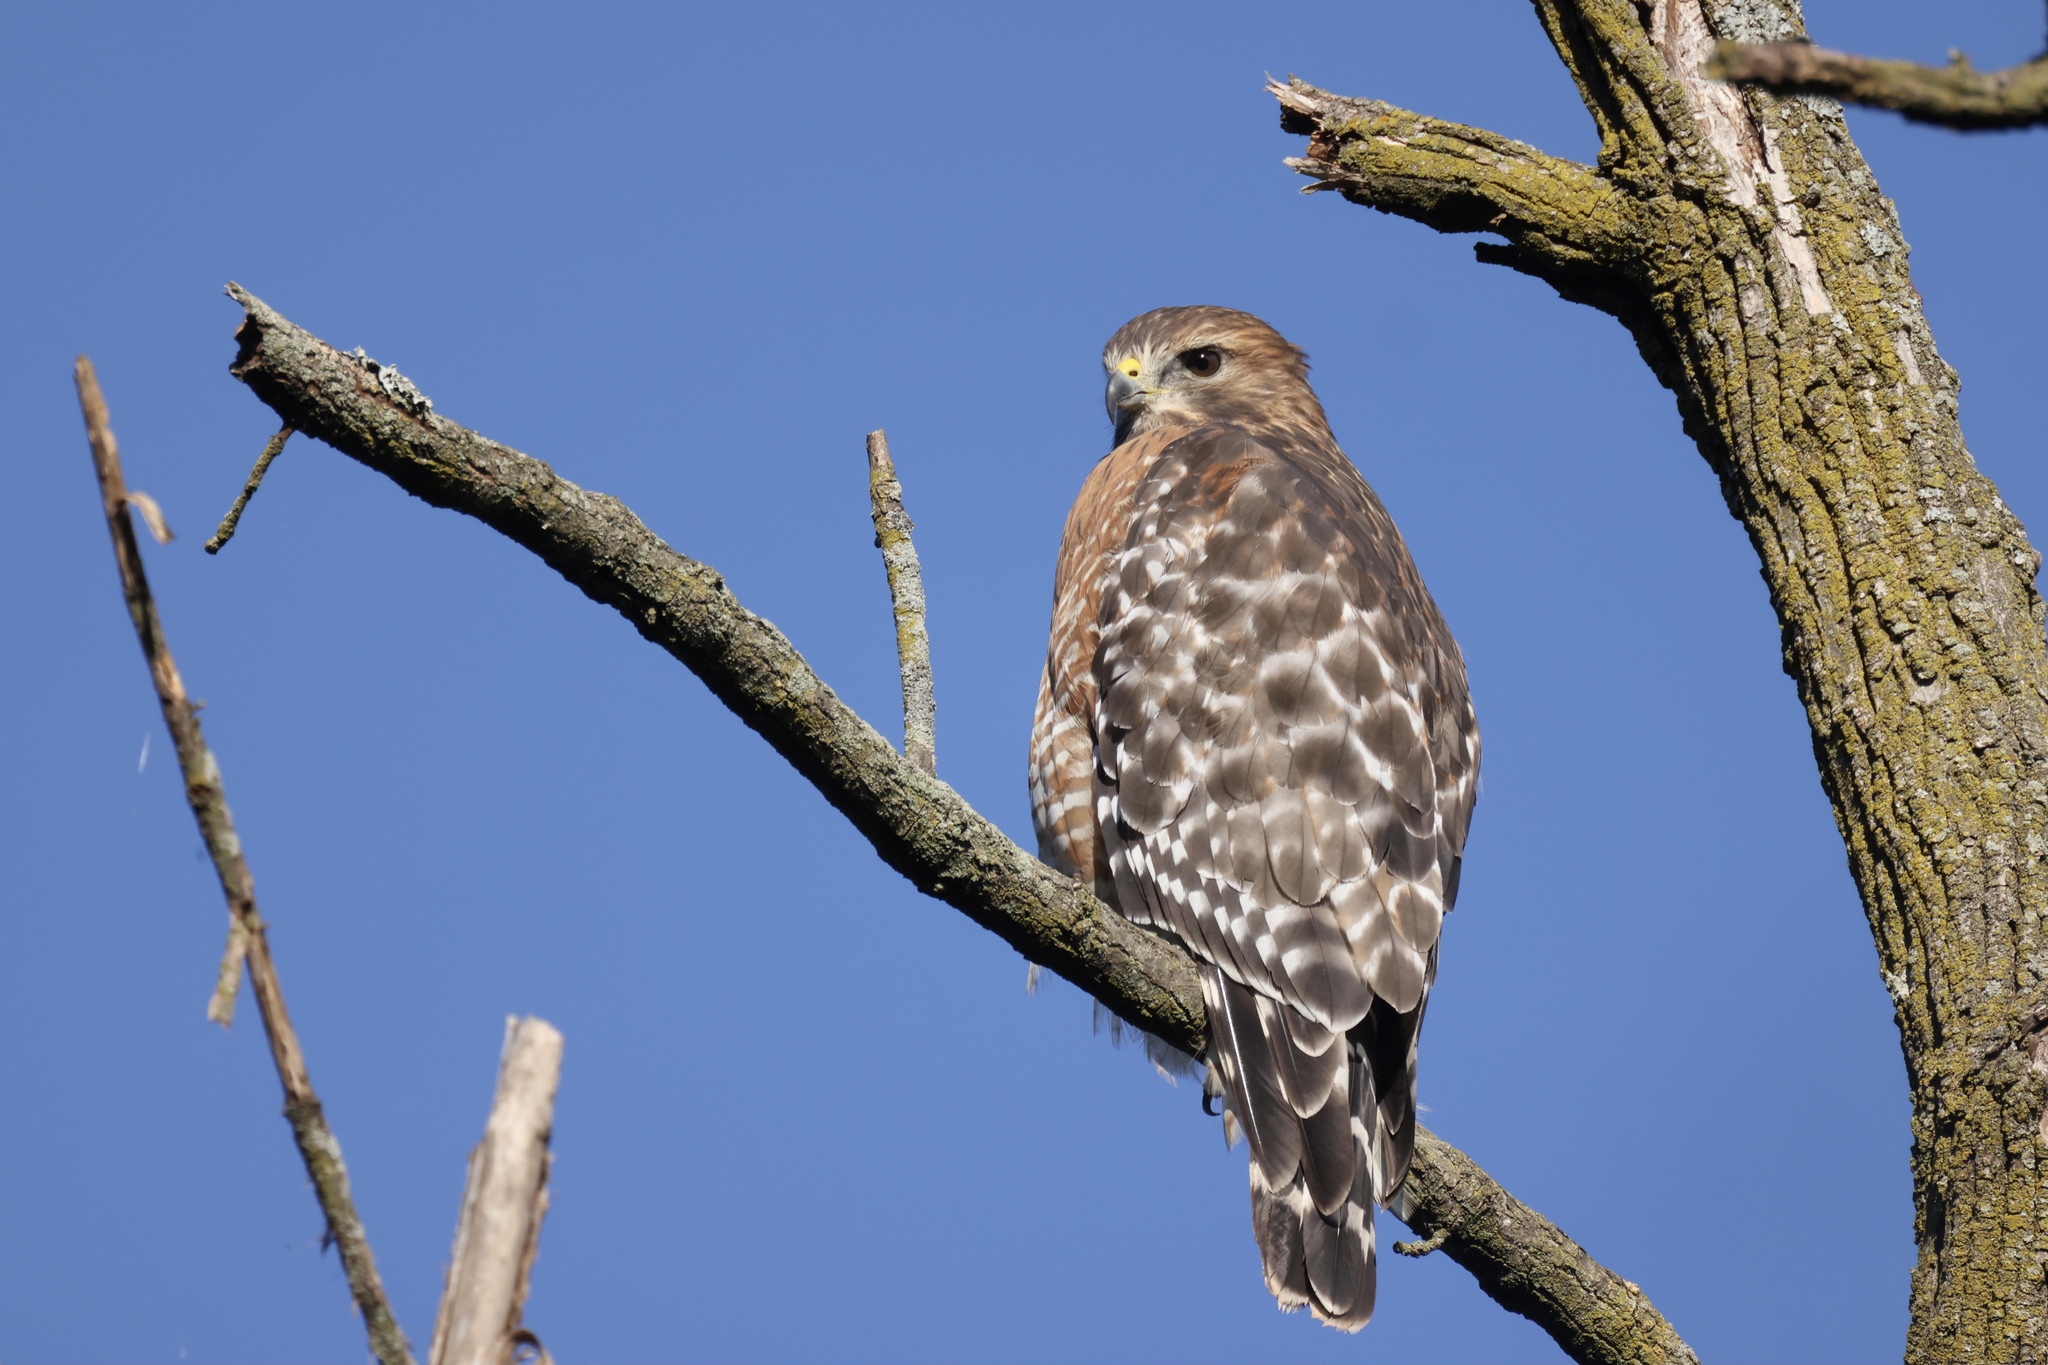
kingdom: Animalia
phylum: Chordata
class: Aves
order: Accipitriformes
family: Accipitridae
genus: Buteo
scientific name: Buteo lineatus
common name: Red-shouldered hawk
